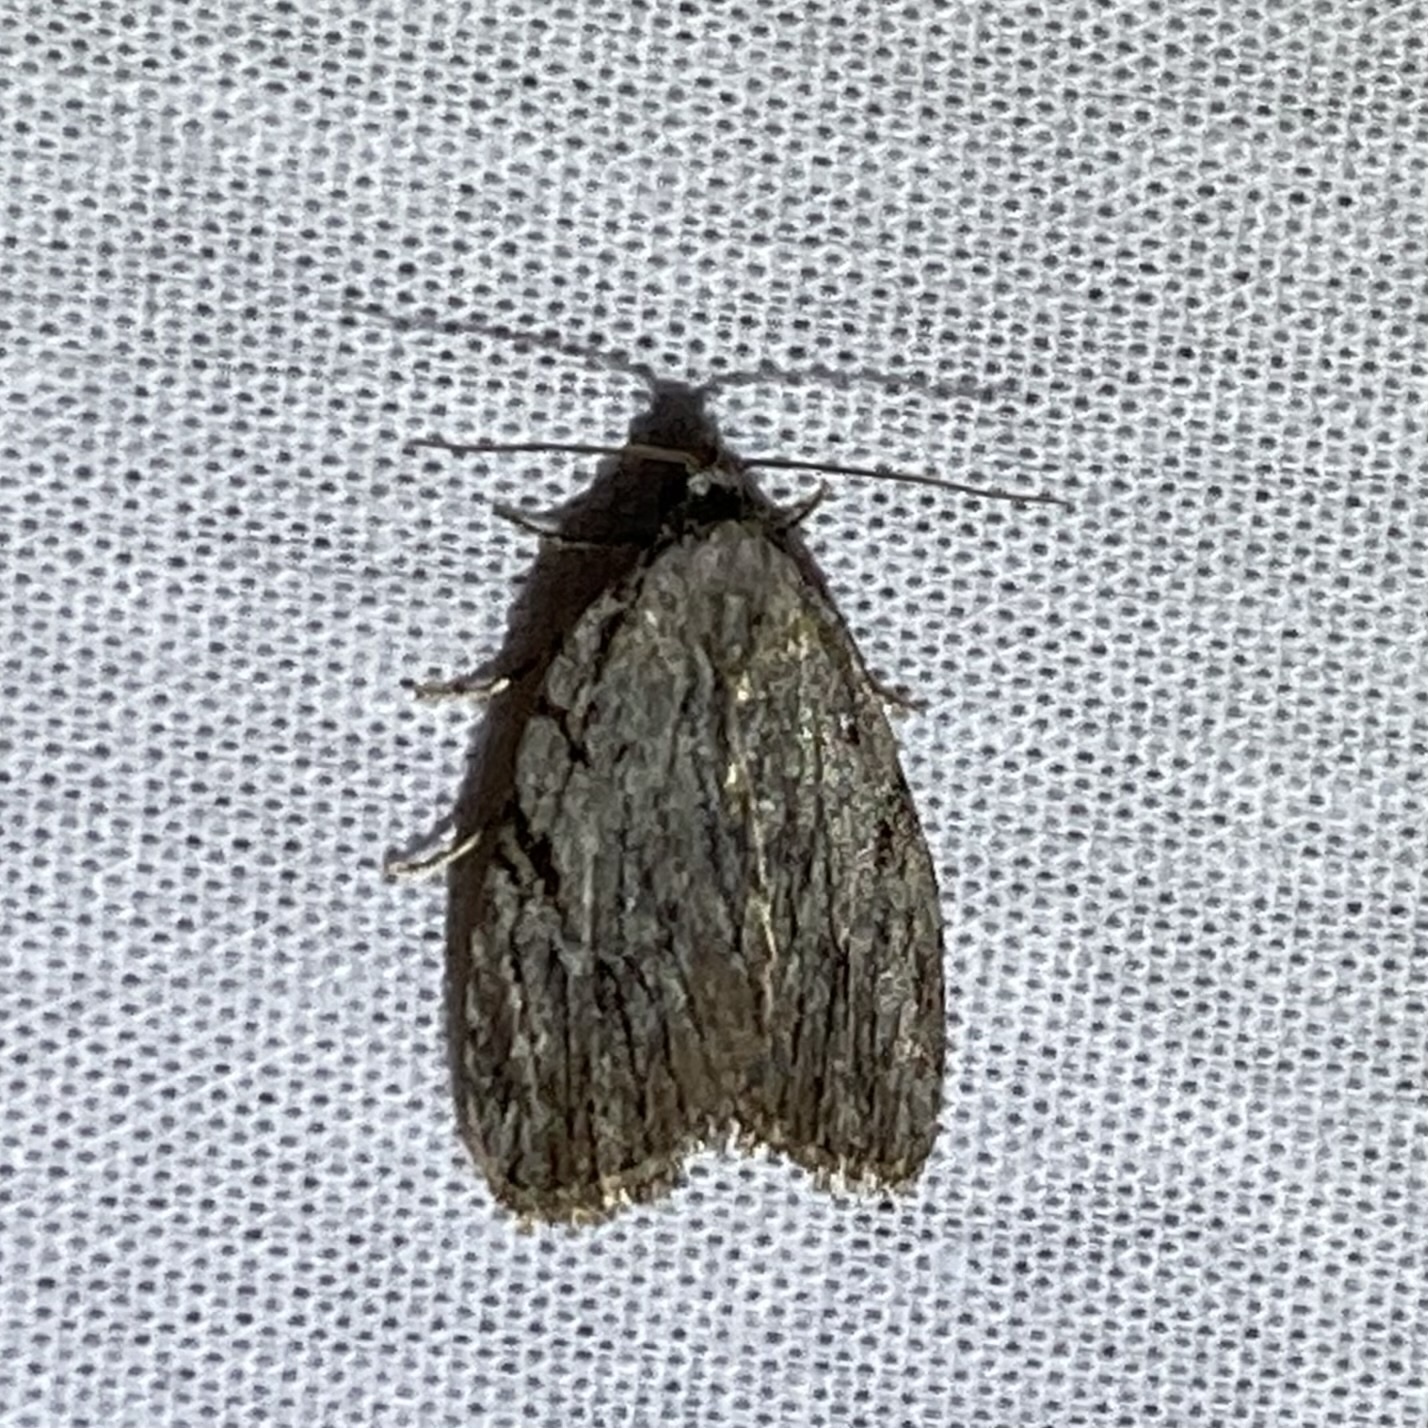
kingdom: Animalia
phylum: Arthropoda
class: Insecta
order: Lepidoptera
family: Noctuidae
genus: Balsa
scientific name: Balsa tristrigella
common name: Three-lined balsa moth
